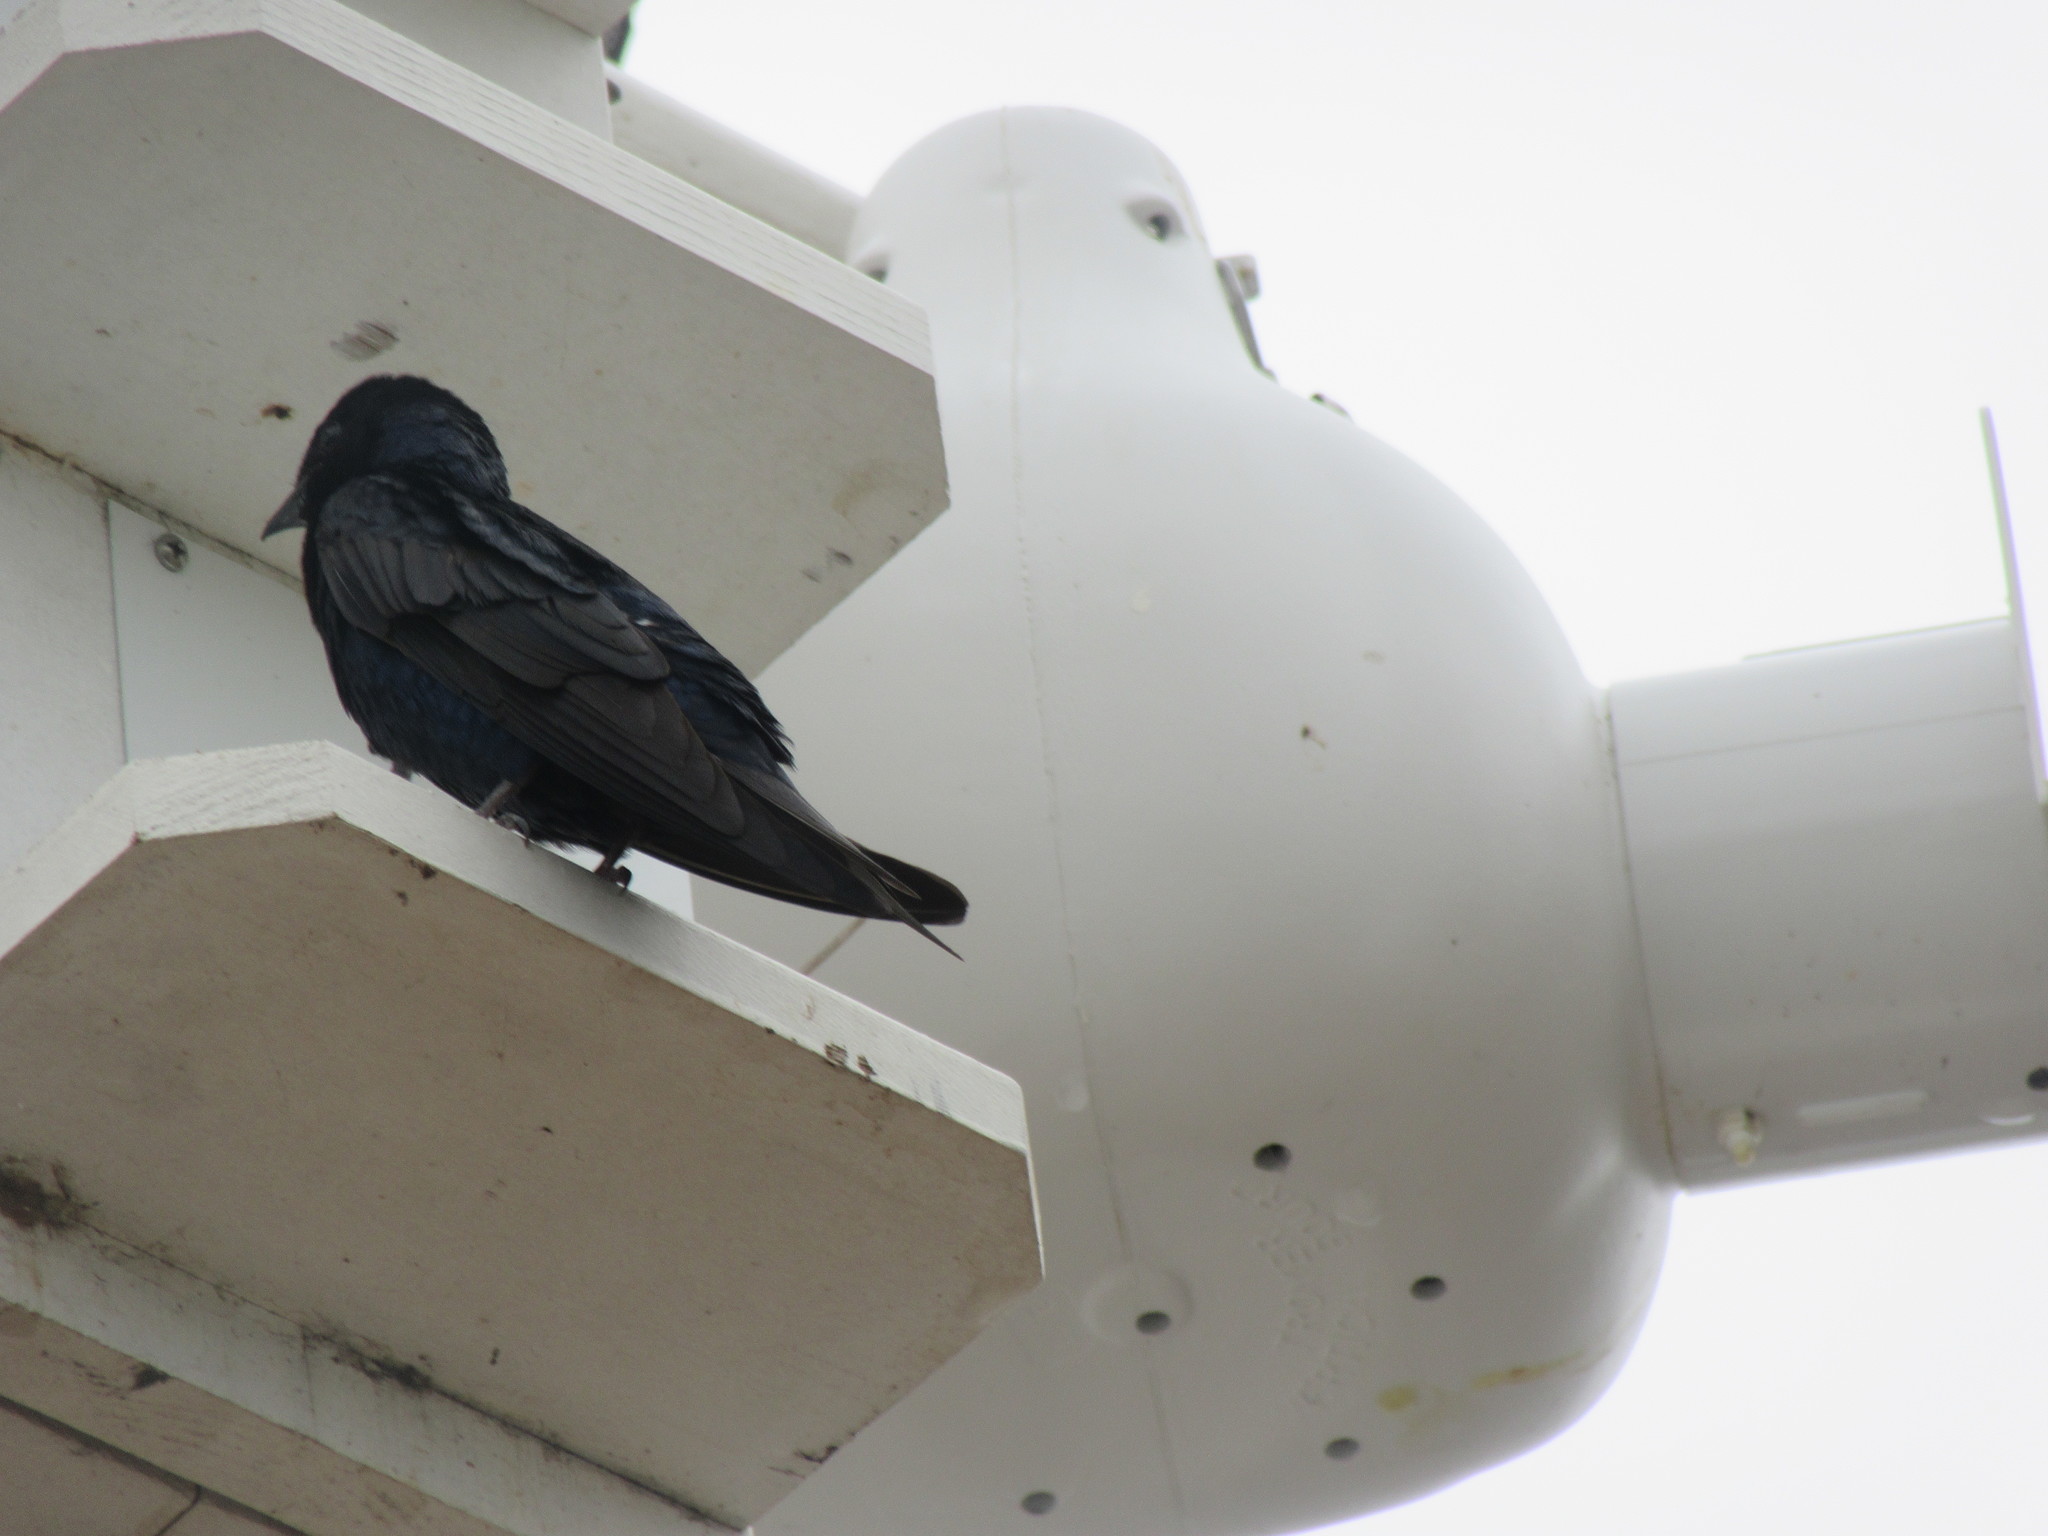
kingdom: Animalia
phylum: Chordata
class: Aves
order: Passeriformes
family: Hirundinidae
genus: Progne
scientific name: Progne subis
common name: Purple martin
